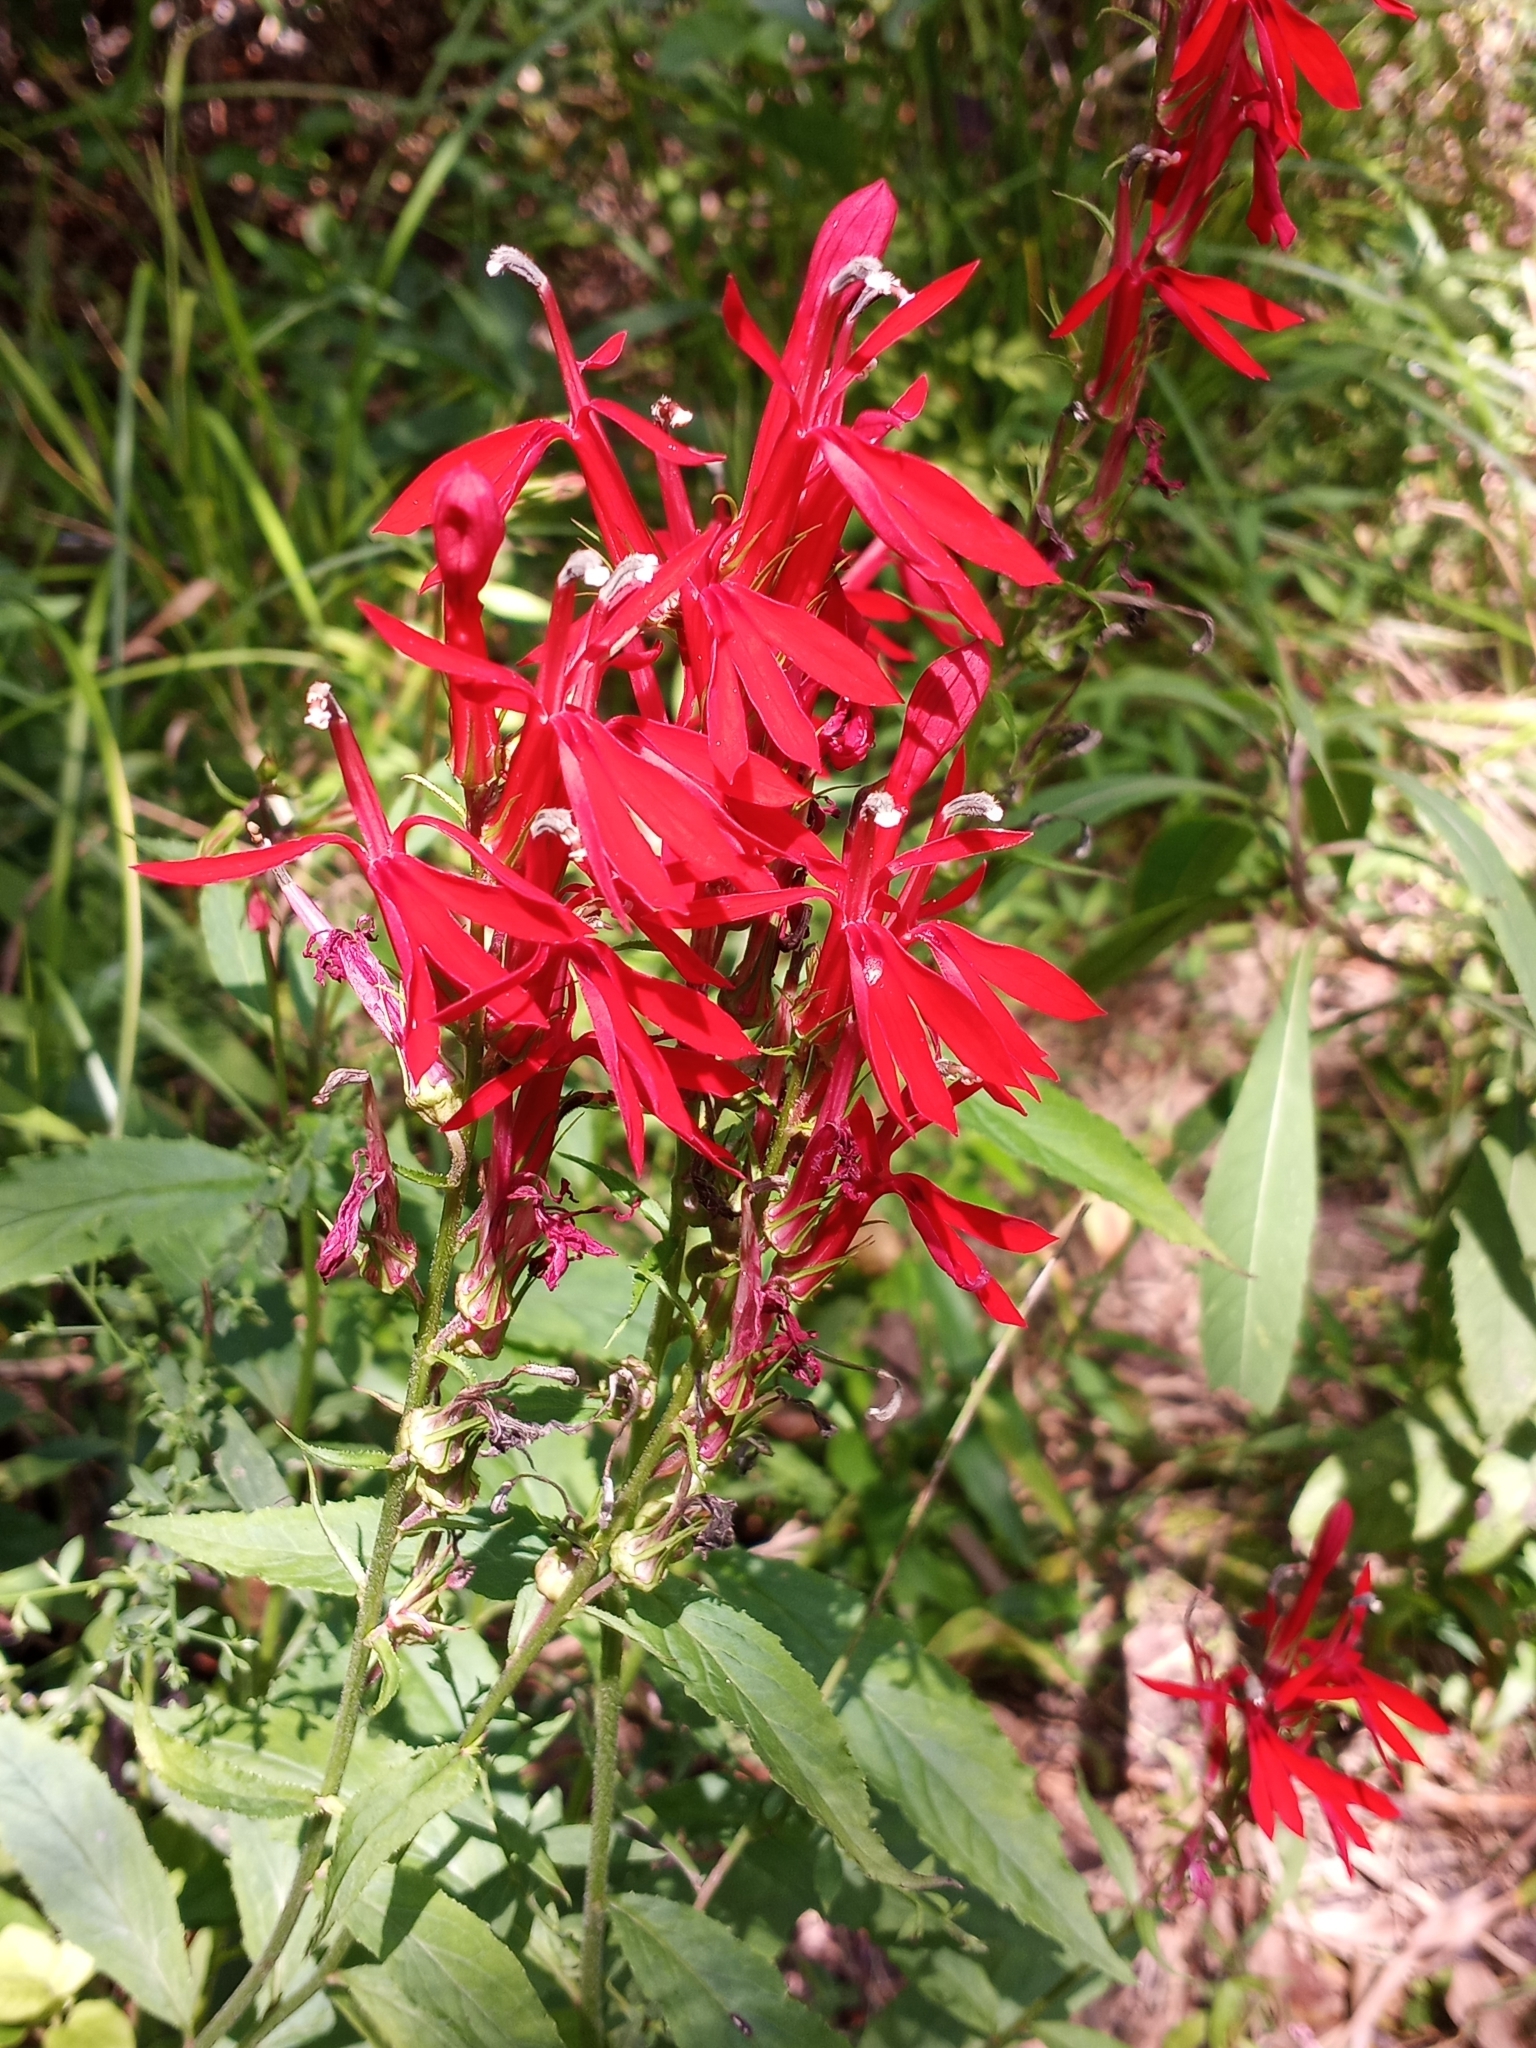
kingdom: Plantae
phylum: Tracheophyta
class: Magnoliopsida
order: Asterales
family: Campanulaceae
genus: Lobelia
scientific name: Lobelia cardinalis
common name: Cardinal flower
